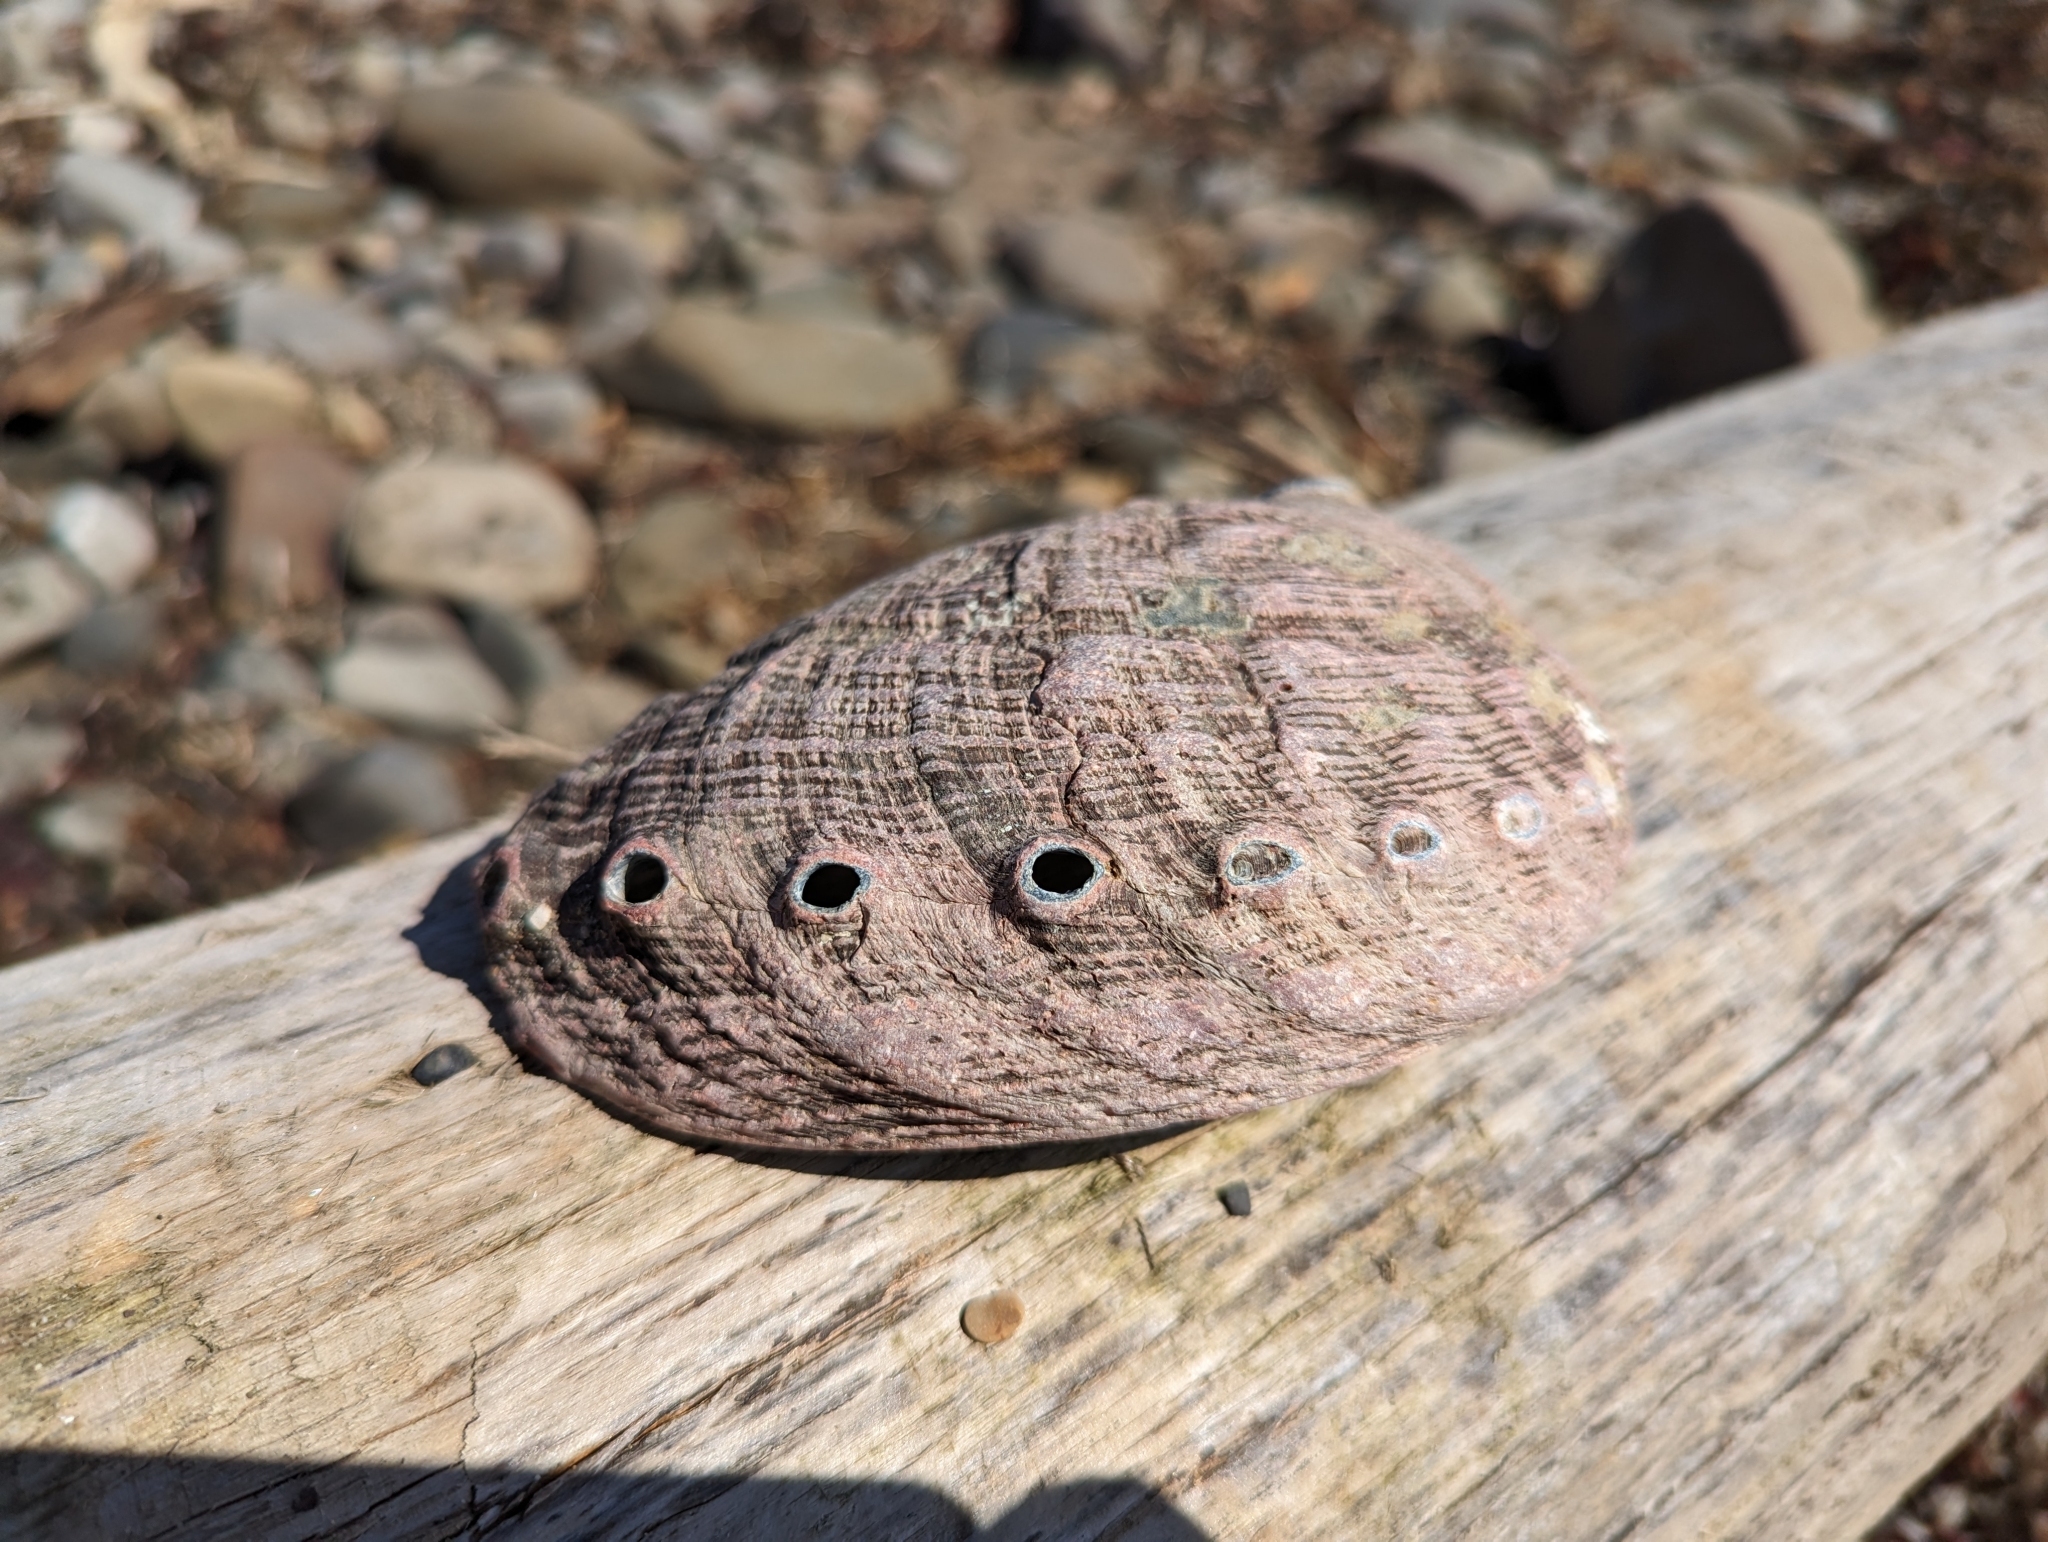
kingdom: Animalia
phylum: Mollusca
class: Gastropoda
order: Lepetellida
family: Haliotidae
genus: Haliotis
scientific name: Haliotis rufescens
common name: Red abalone
